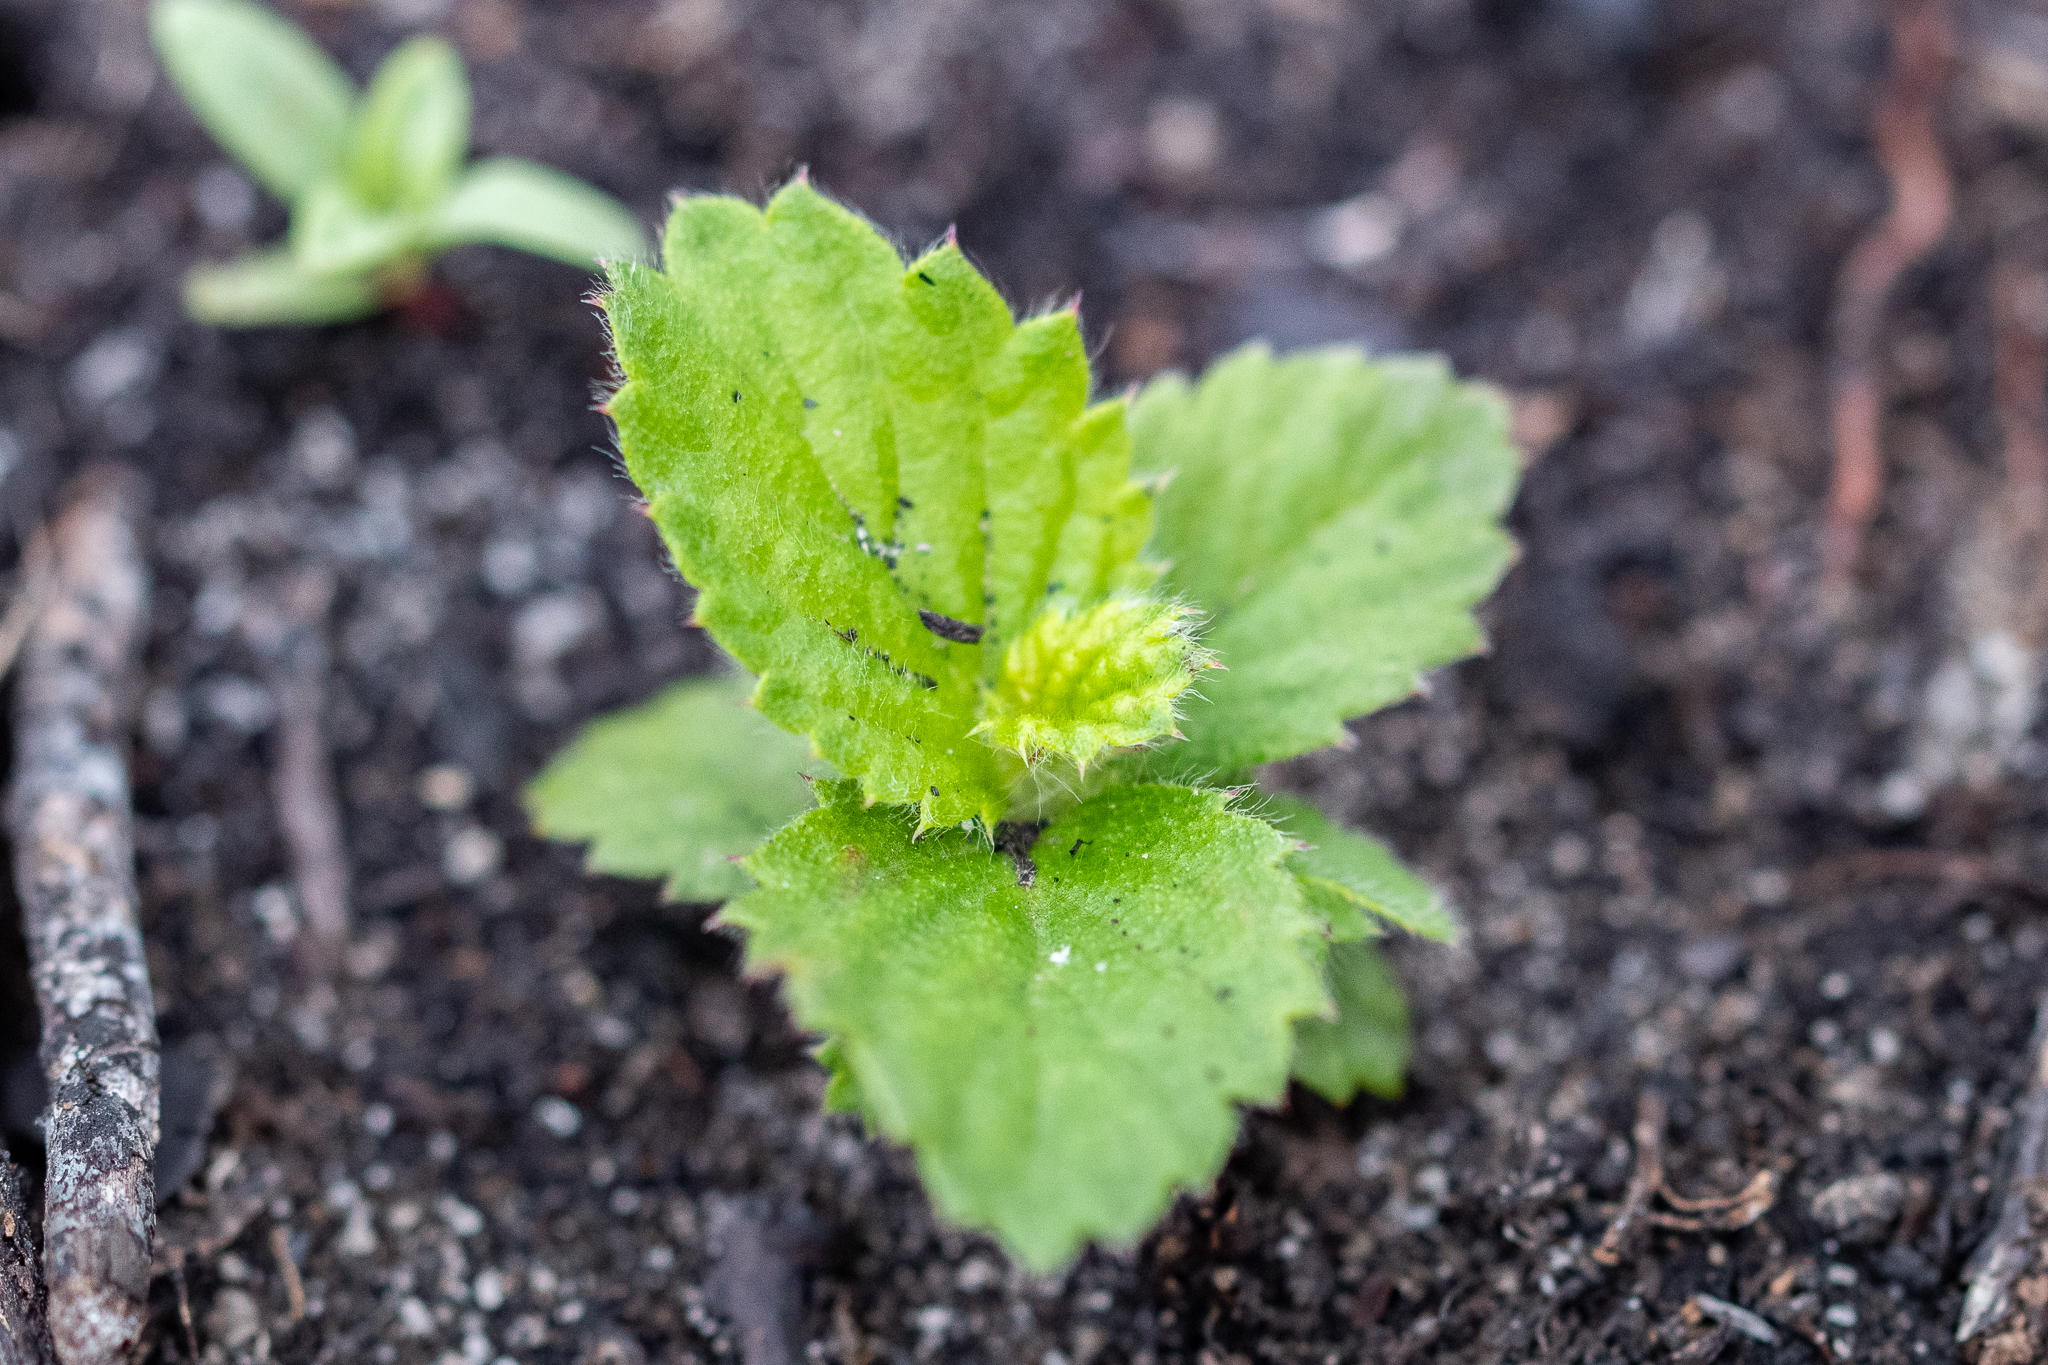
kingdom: Plantae
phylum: Tracheophyta
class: Magnoliopsida
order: Rosales
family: Rosaceae
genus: Cliffortia
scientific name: Cliffortia hirsuta
